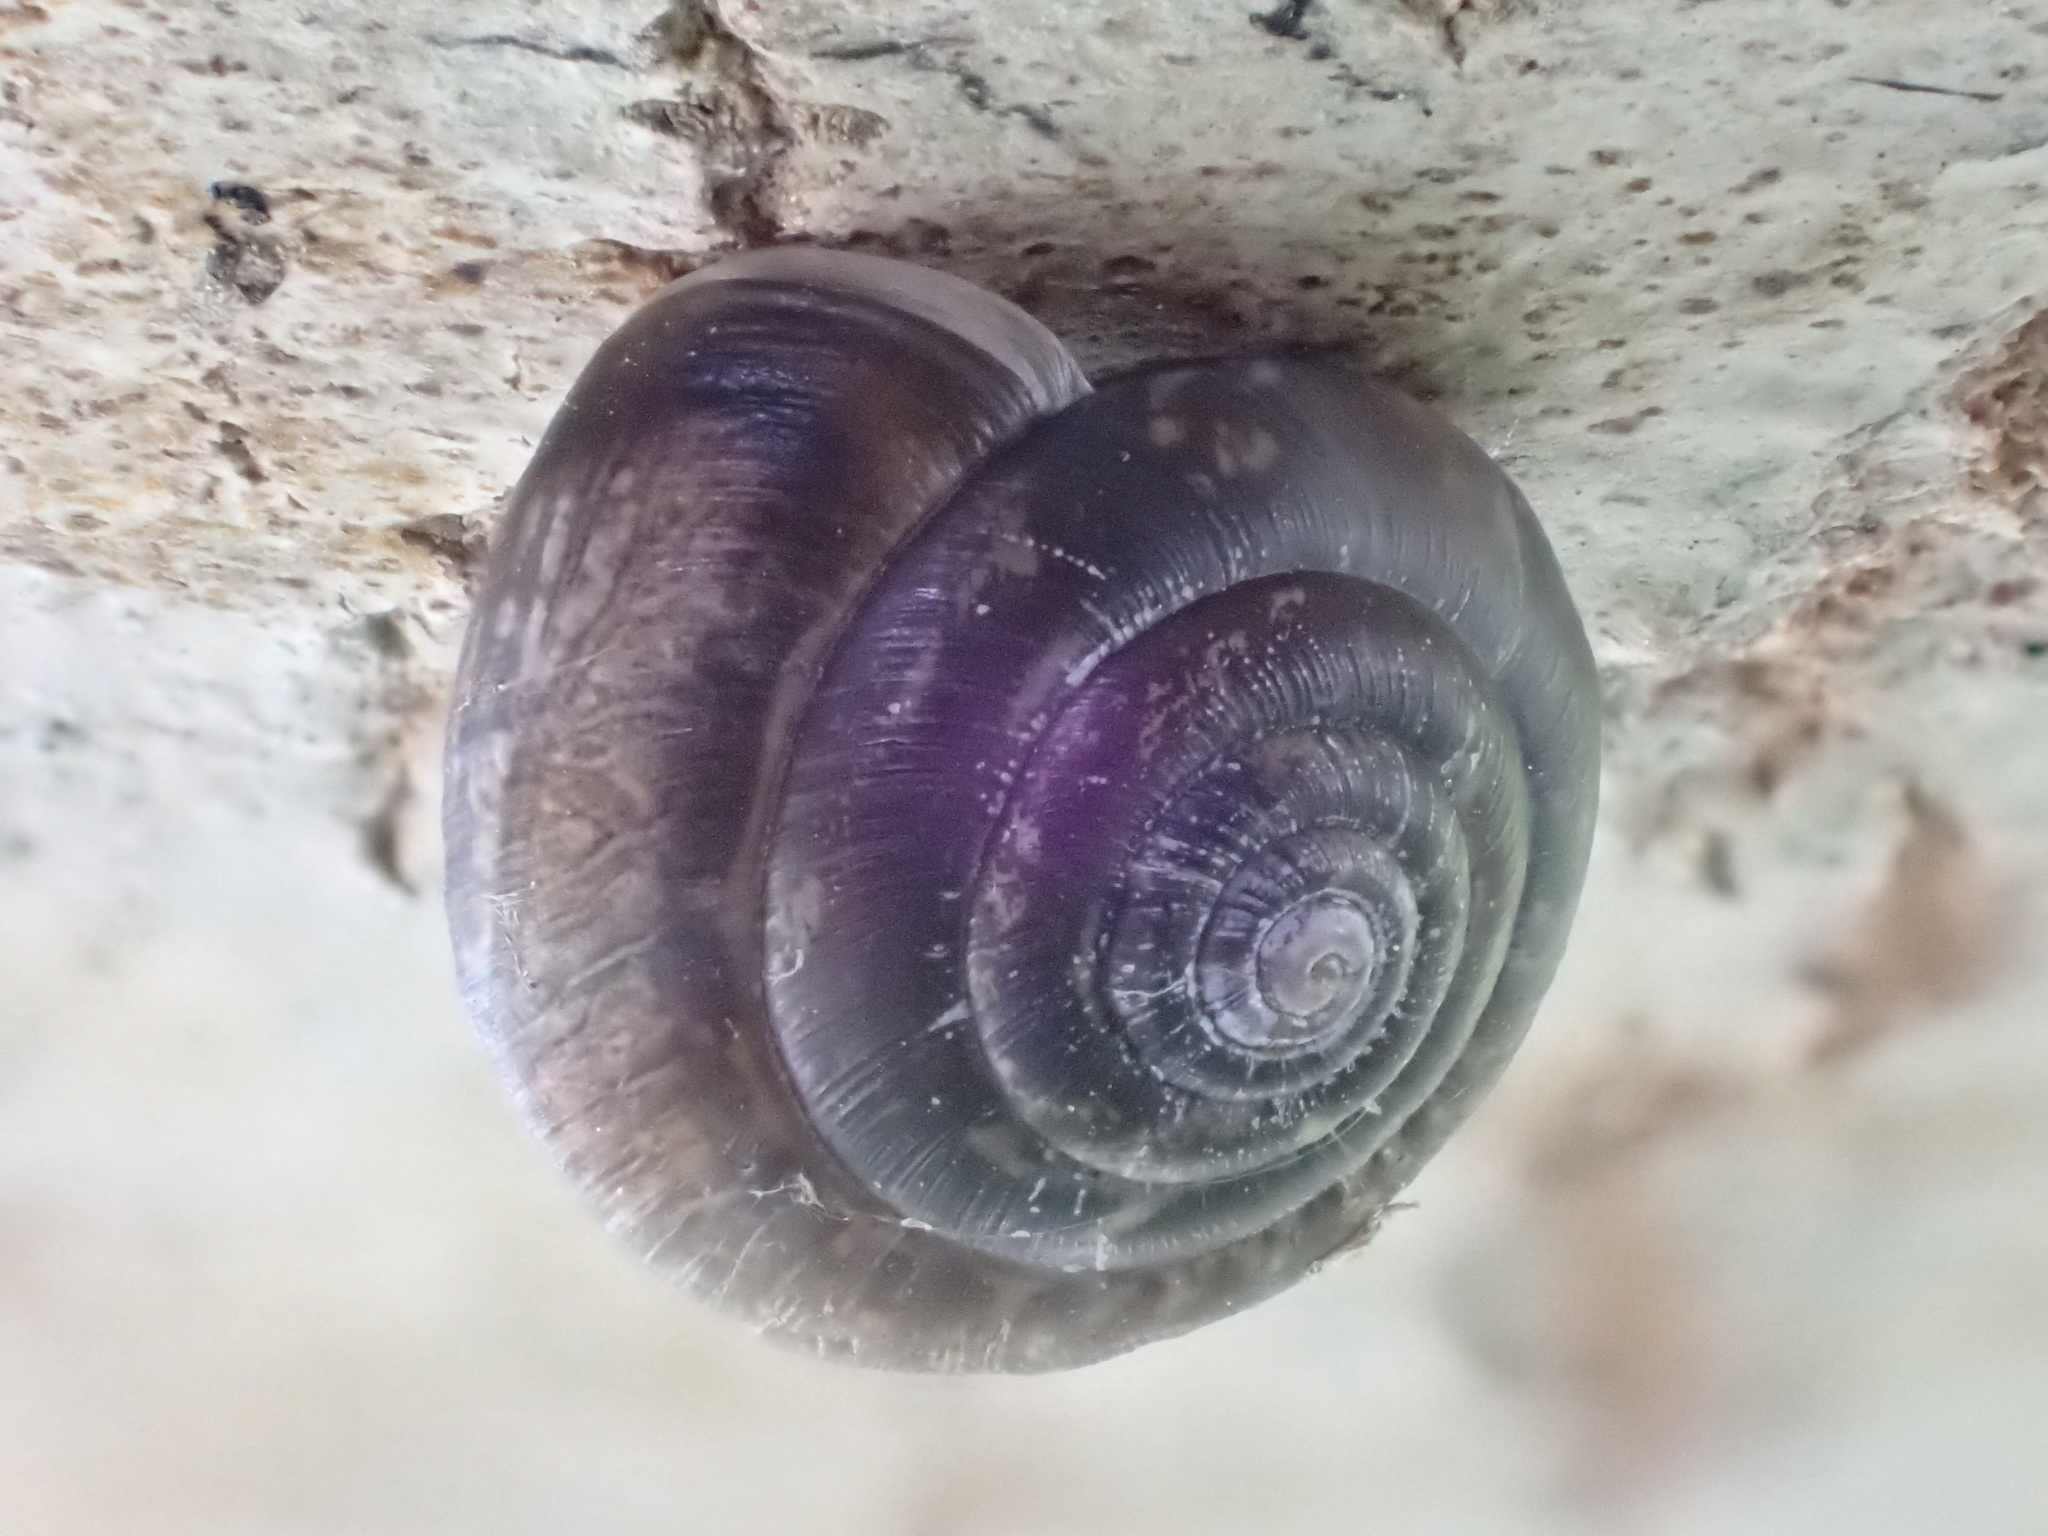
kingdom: Animalia
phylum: Mollusca
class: Gastropoda
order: Stylommatophora
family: Hygromiidae
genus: Trochulus
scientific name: Trochulus striolatus
